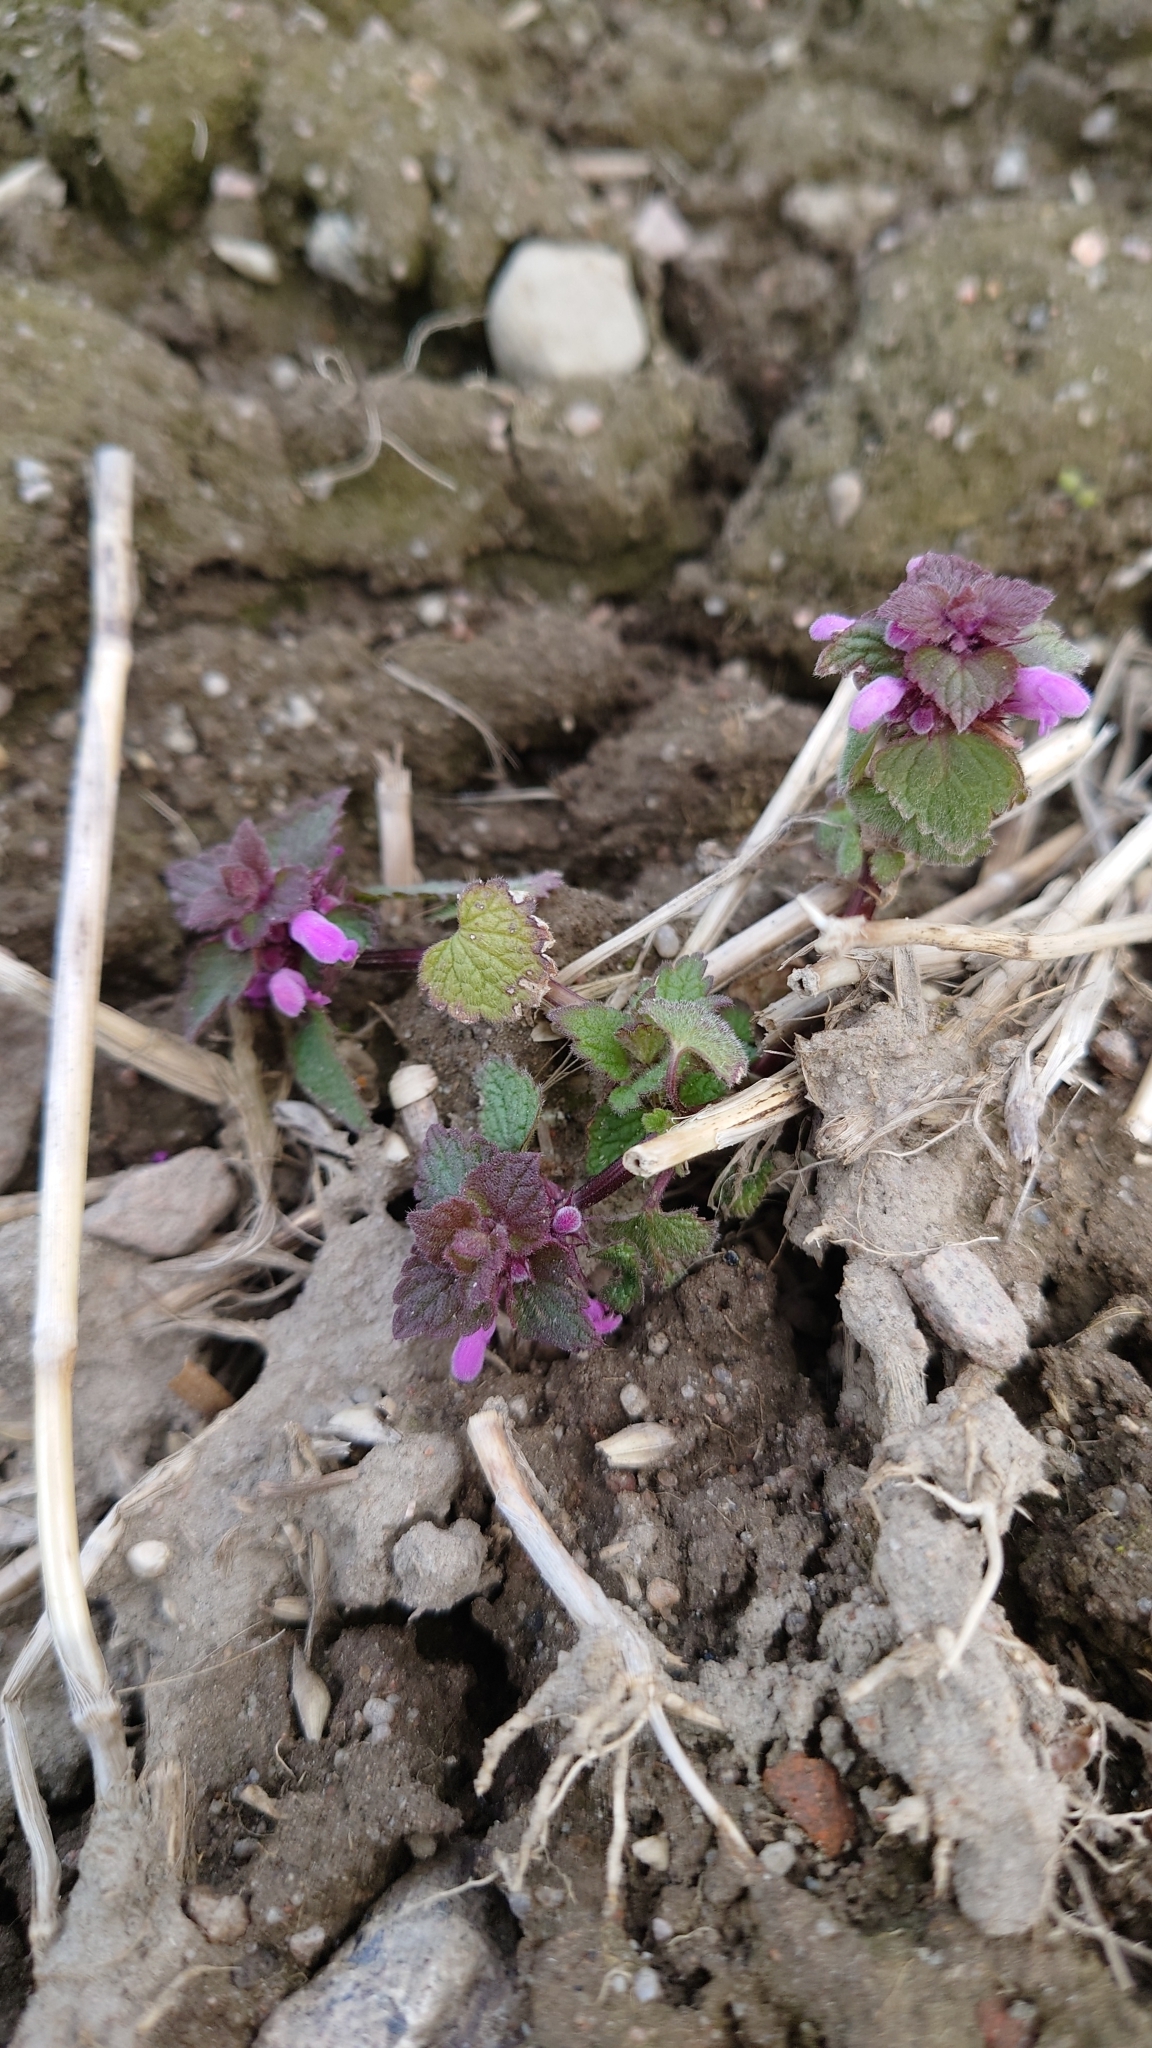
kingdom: Plantae
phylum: Tracheophyta
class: Magnoliopsida
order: Lamiales
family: Lamiaceae
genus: Lamium
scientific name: Lamium purpureum
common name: Red dead-nettle
